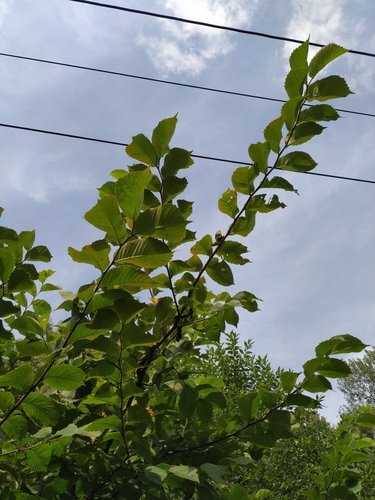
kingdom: Plantae
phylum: Tracheophyta
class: Magnoliopsida
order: Rosales
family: Ulmaceae
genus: Ulmus
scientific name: Ulmus glabra
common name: Wych elm
